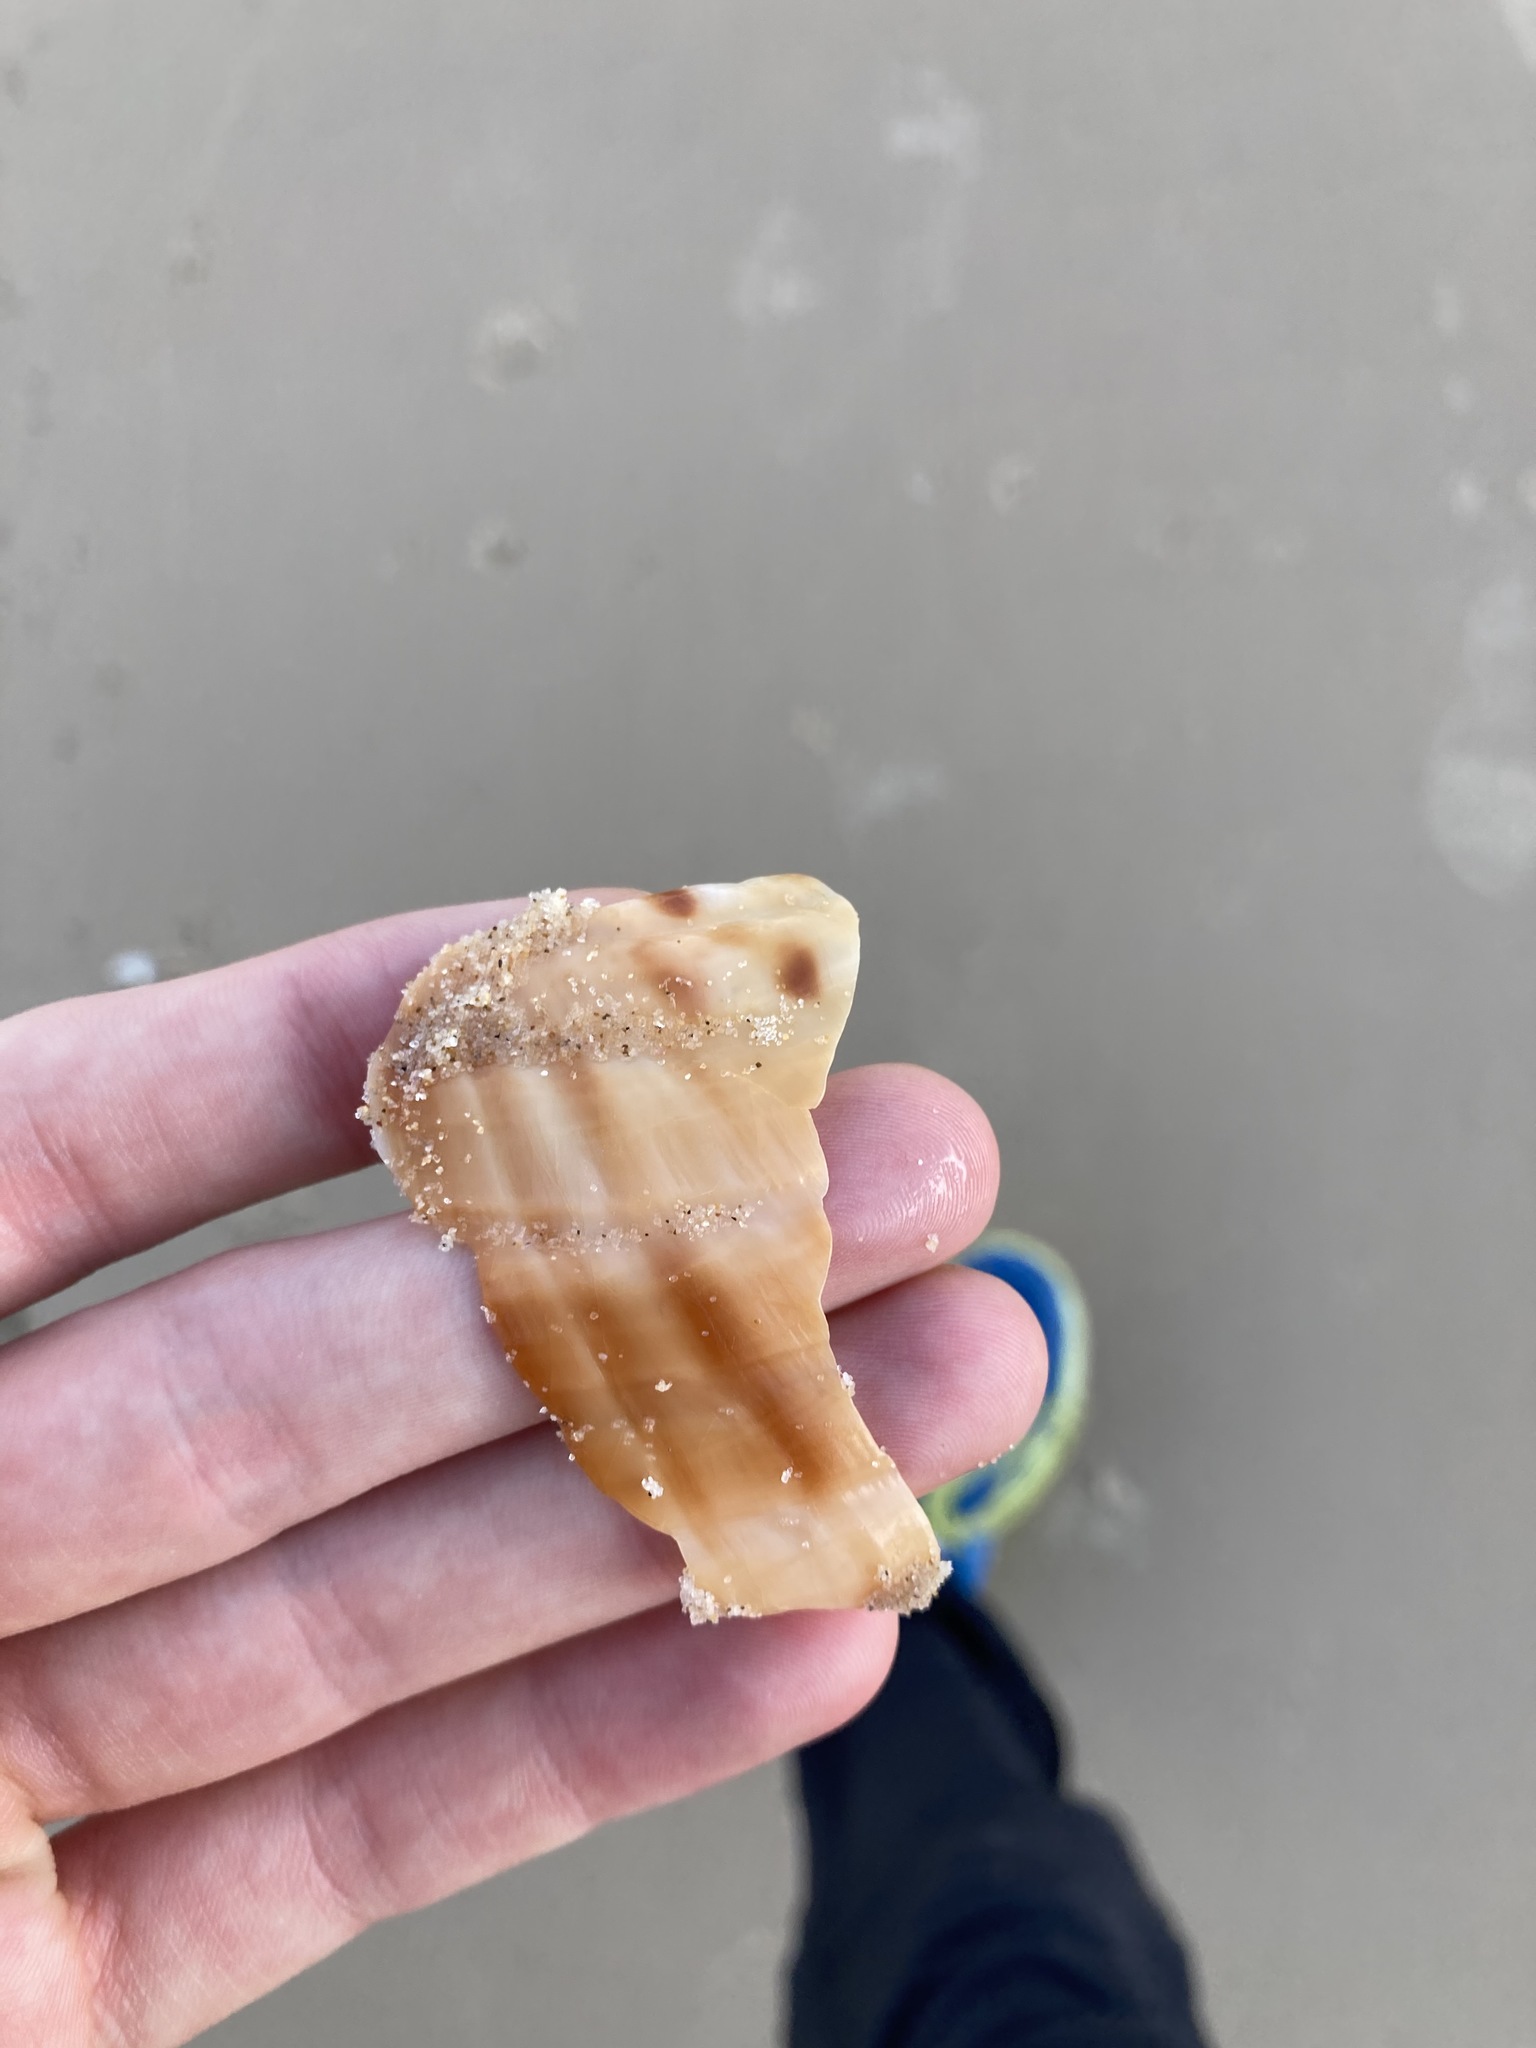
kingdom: Animalia
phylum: Mollusca
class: Gastropoda
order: Littorinimorpha
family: Tonnidae
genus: Tonna
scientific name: Tonna tankervillii
